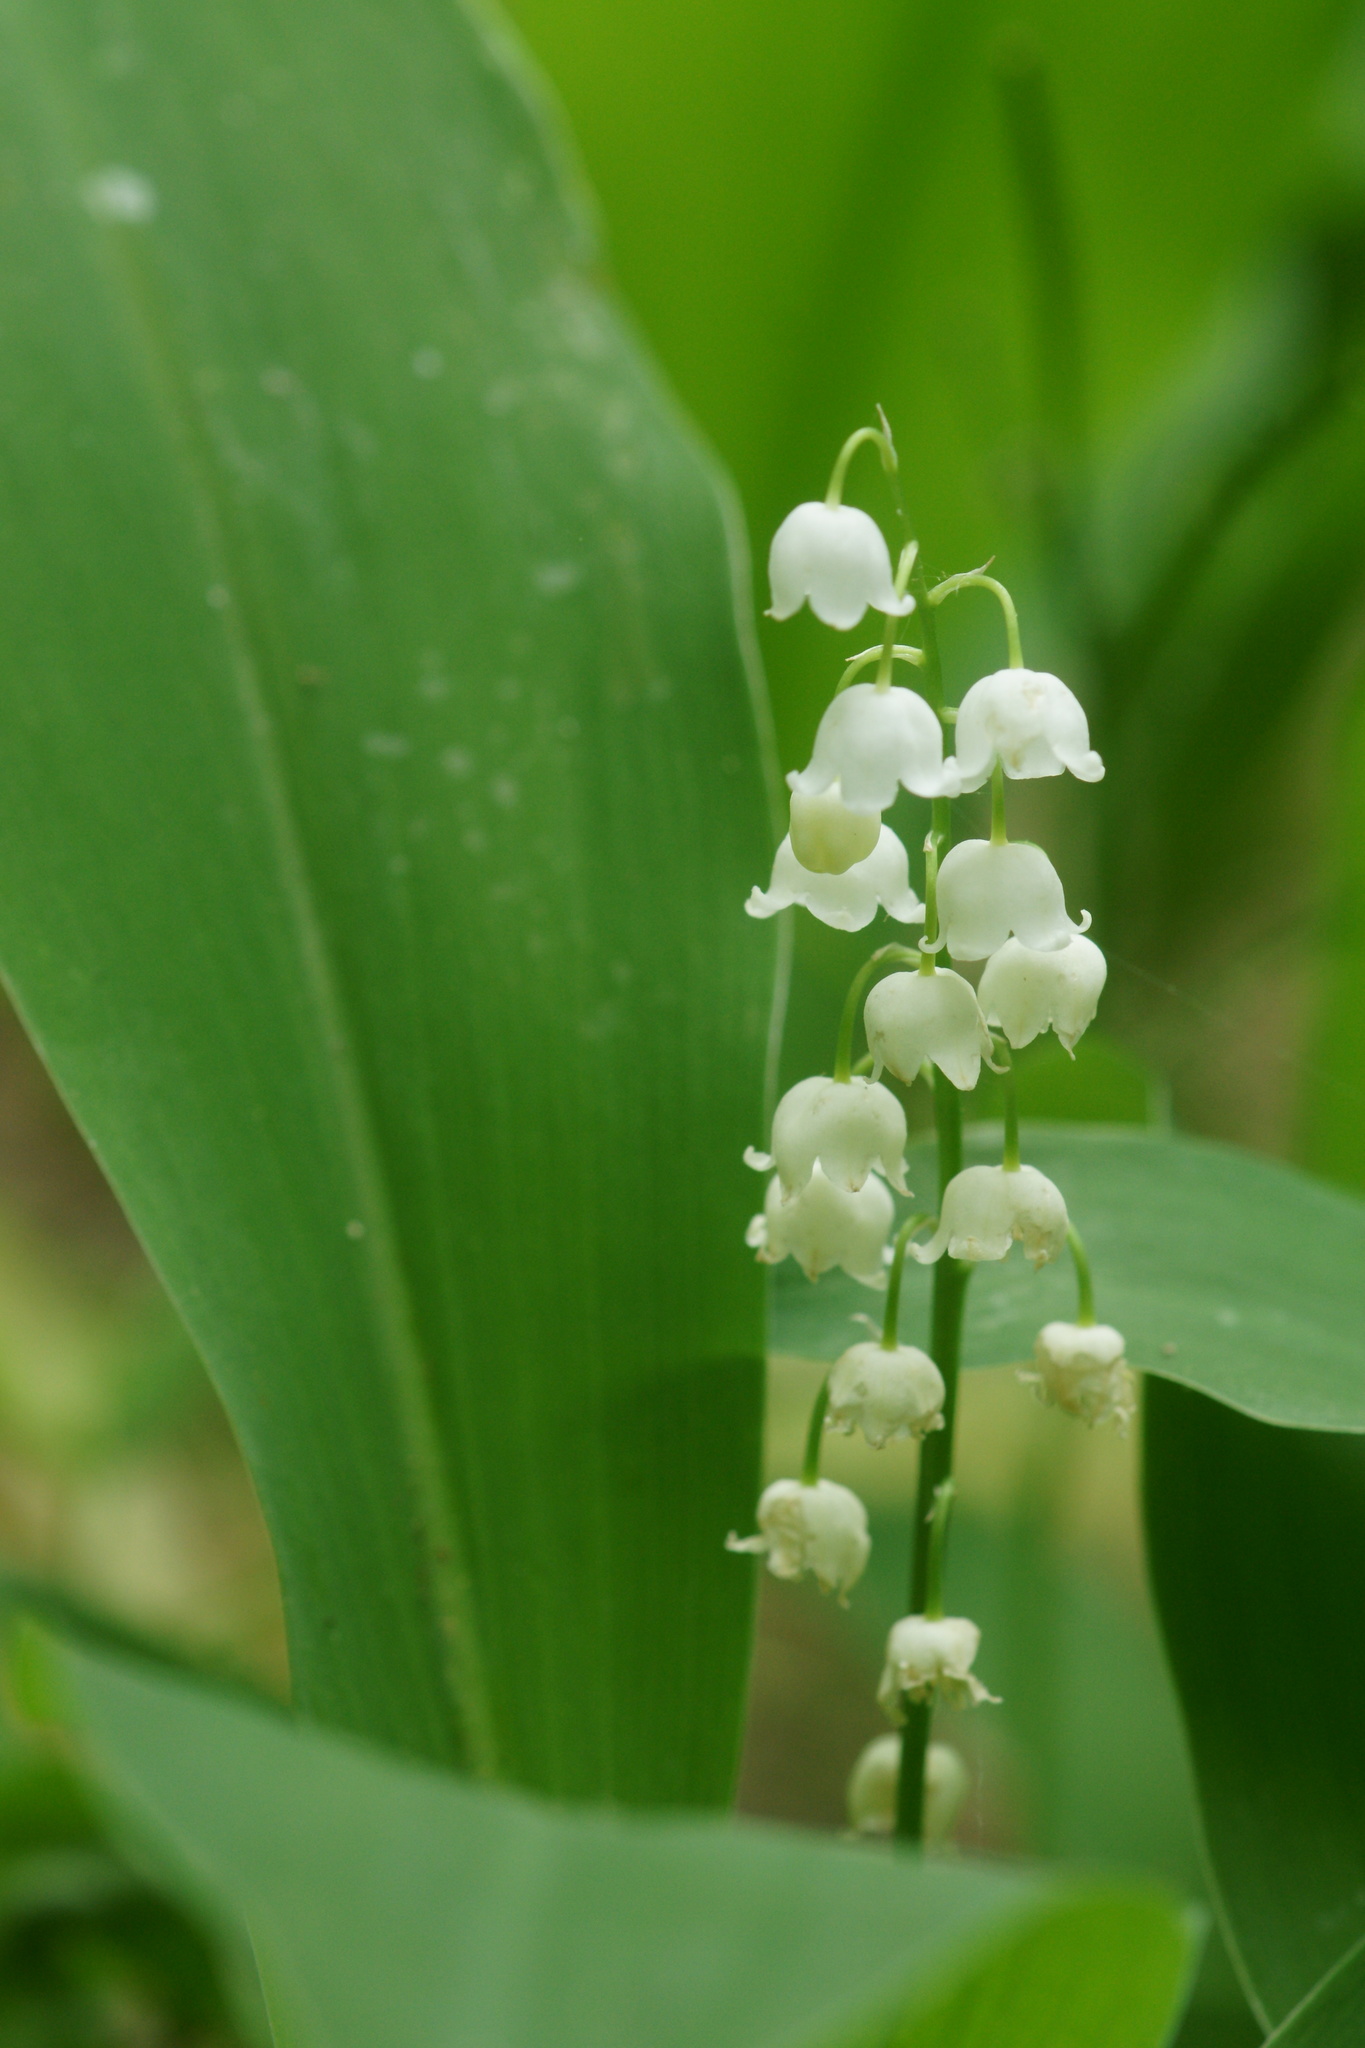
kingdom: Plantae
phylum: Tracheophyta
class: Liliopsida
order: Asparagales
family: Asparagaceae
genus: Convallaria
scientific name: Convallaria majalis
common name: Lily-of-the-valley
